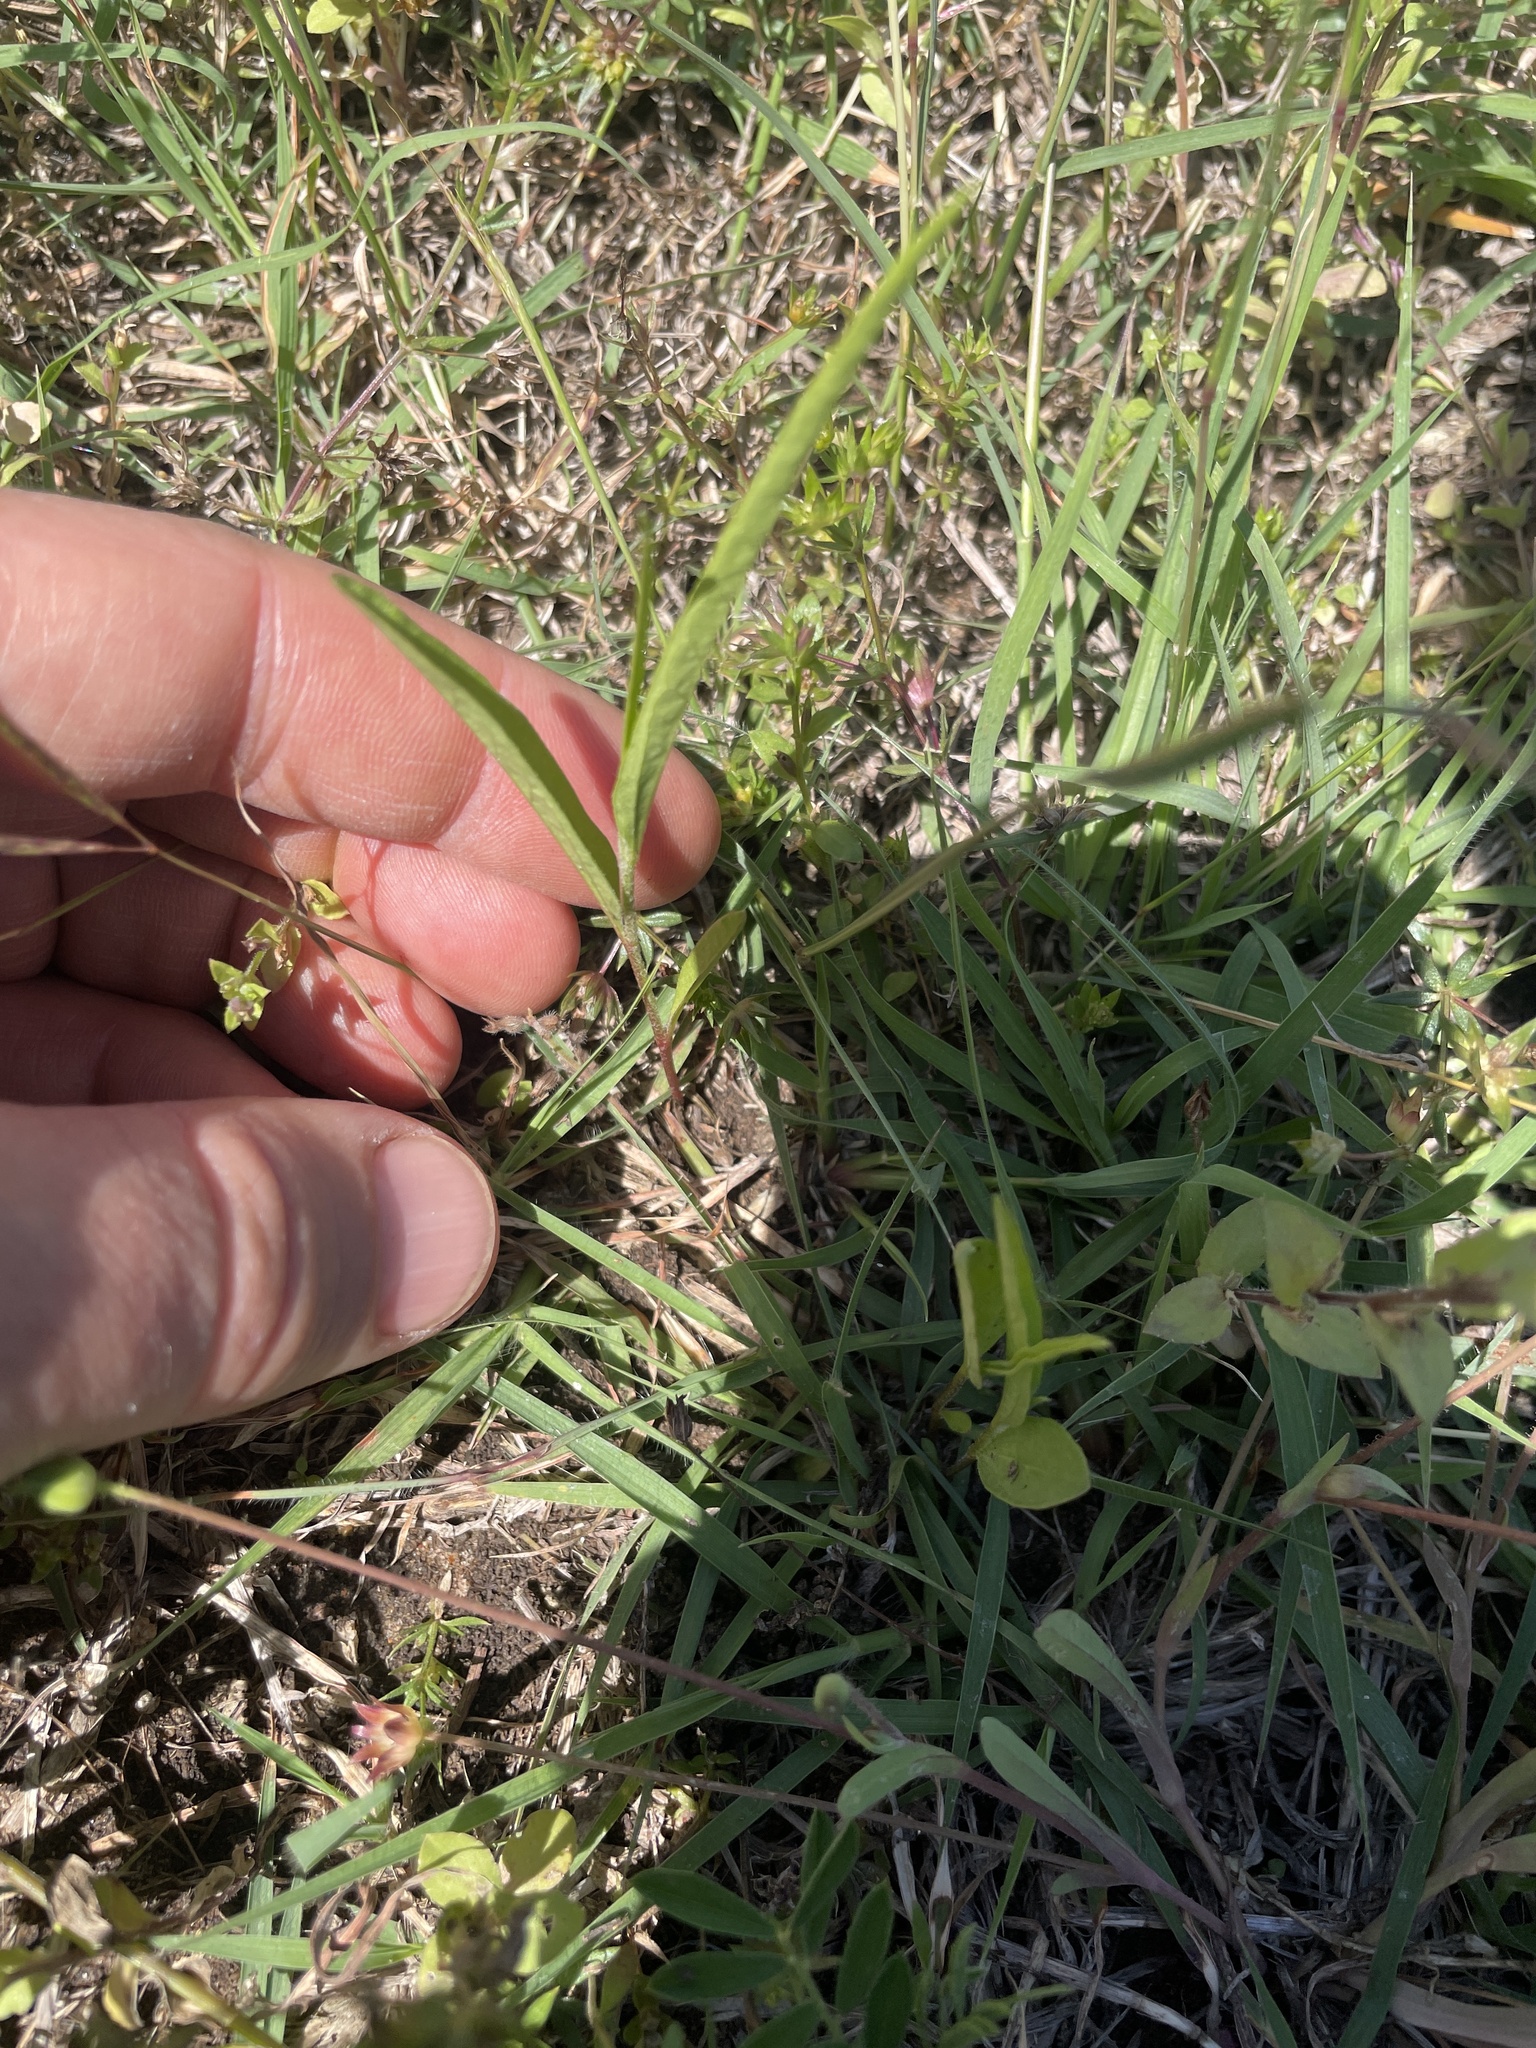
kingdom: Plantae
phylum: Tracheophyta
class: Magnoliopsida
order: Piperales
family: Aristolochiaceae
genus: Aristolochia
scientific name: Aristolochia erecta
